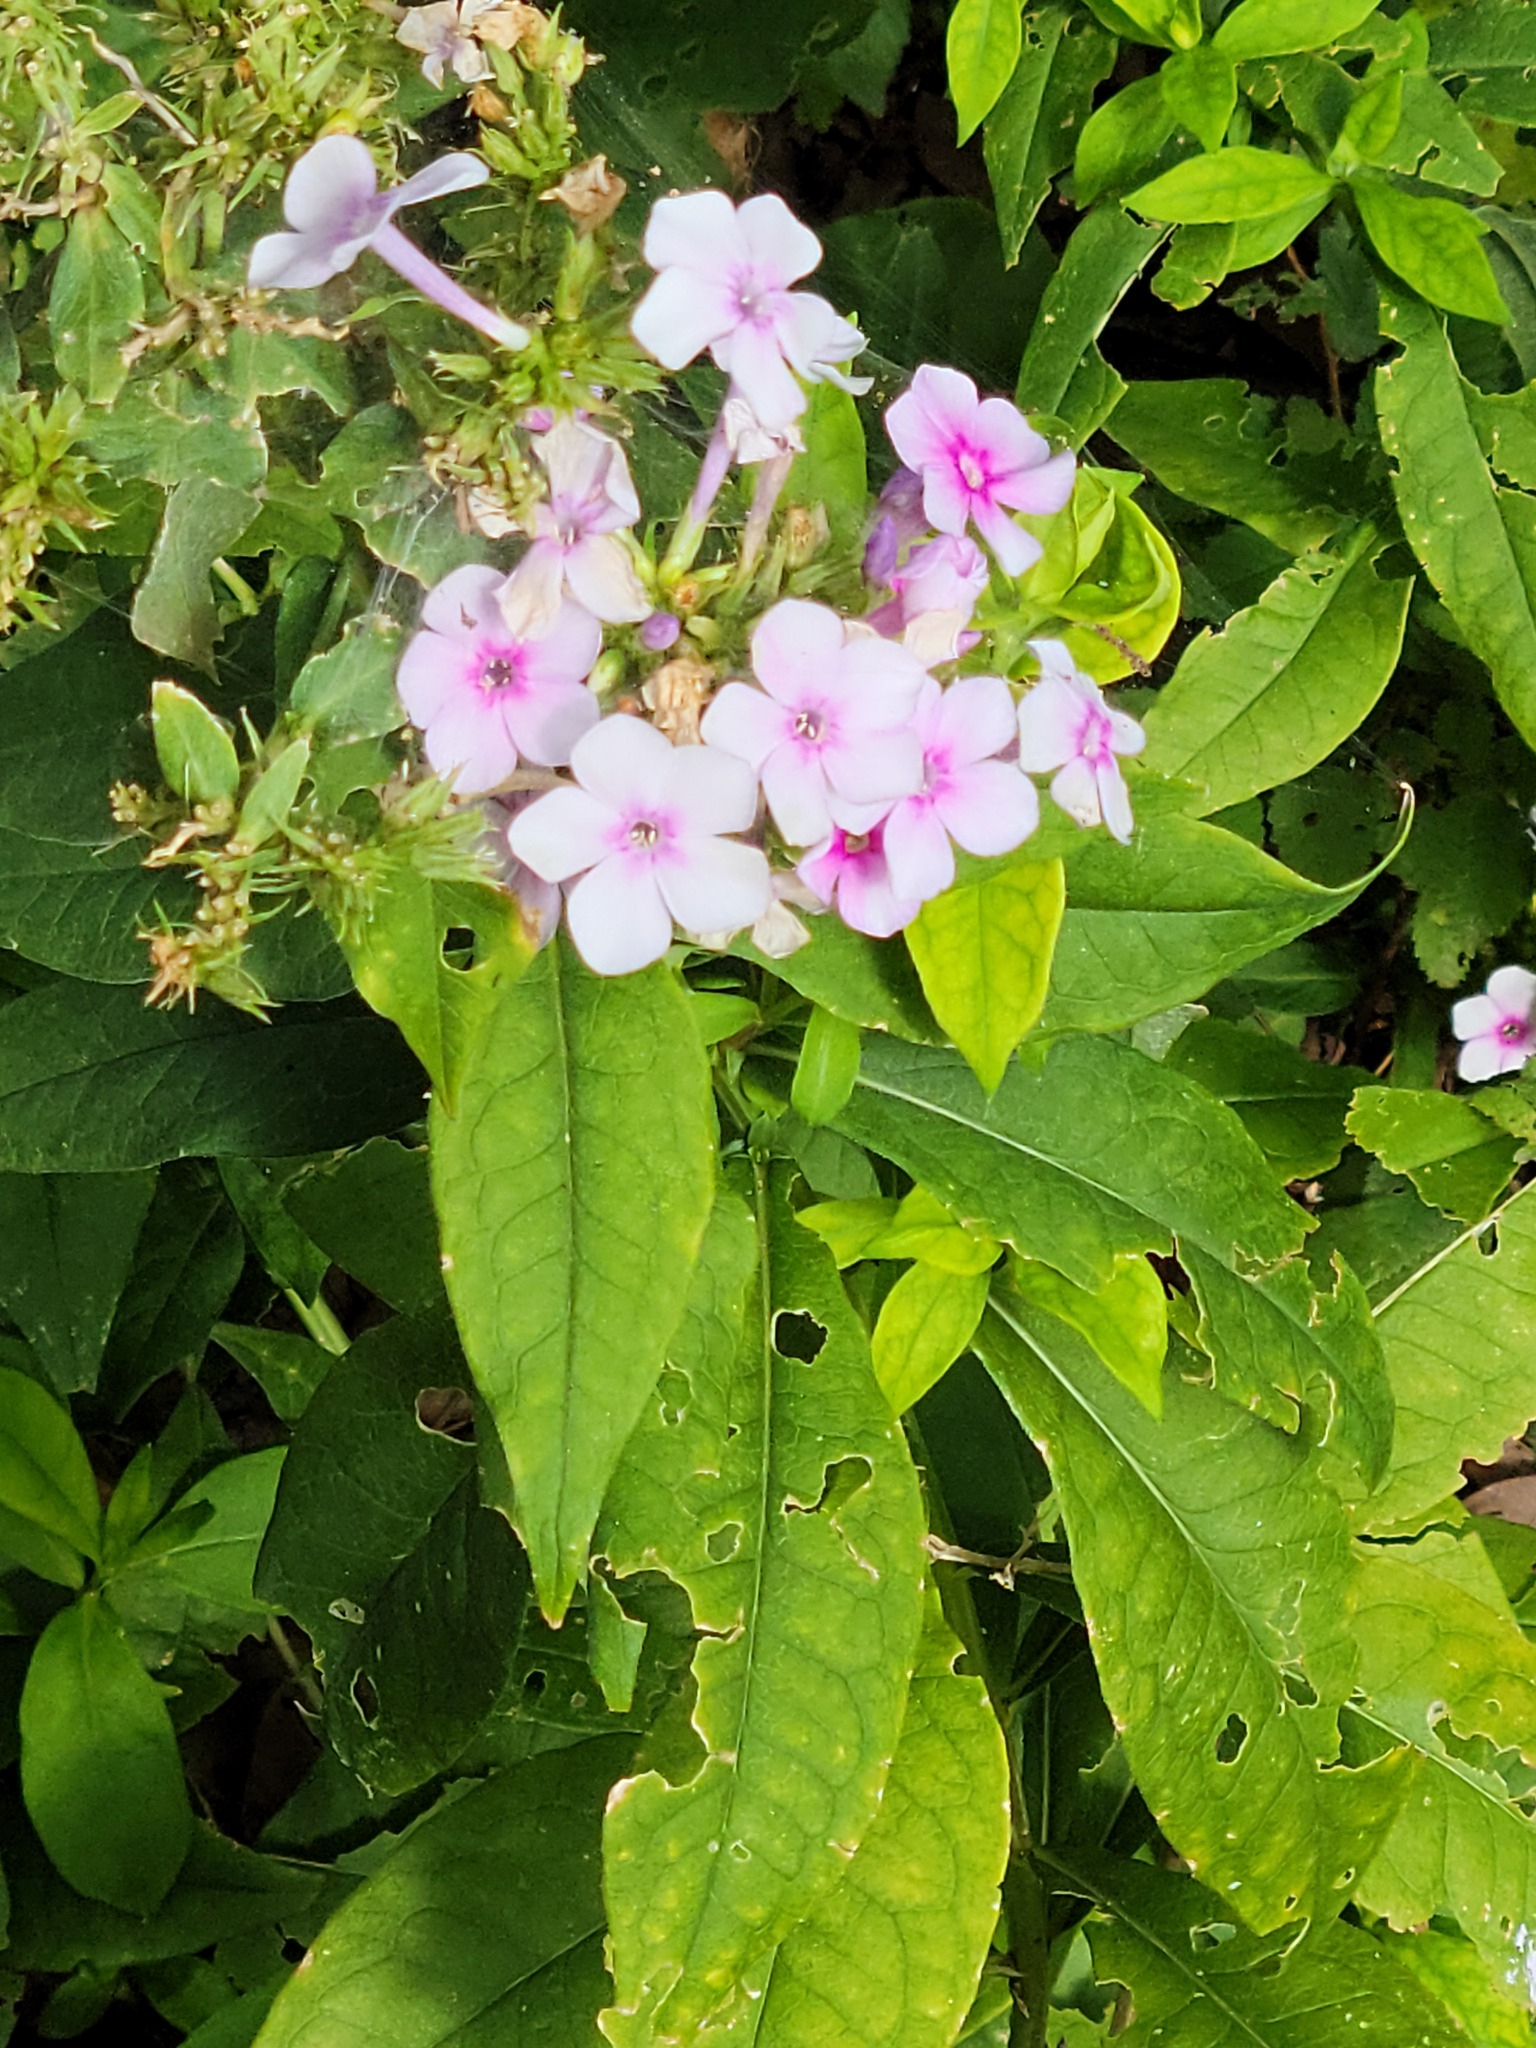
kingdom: Plantae
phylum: Tracheophyta
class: Magnoliopsida
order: Ericales
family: Polemoniaceae
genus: Phlox
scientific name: Phlox paniculata
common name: Fall phlox
